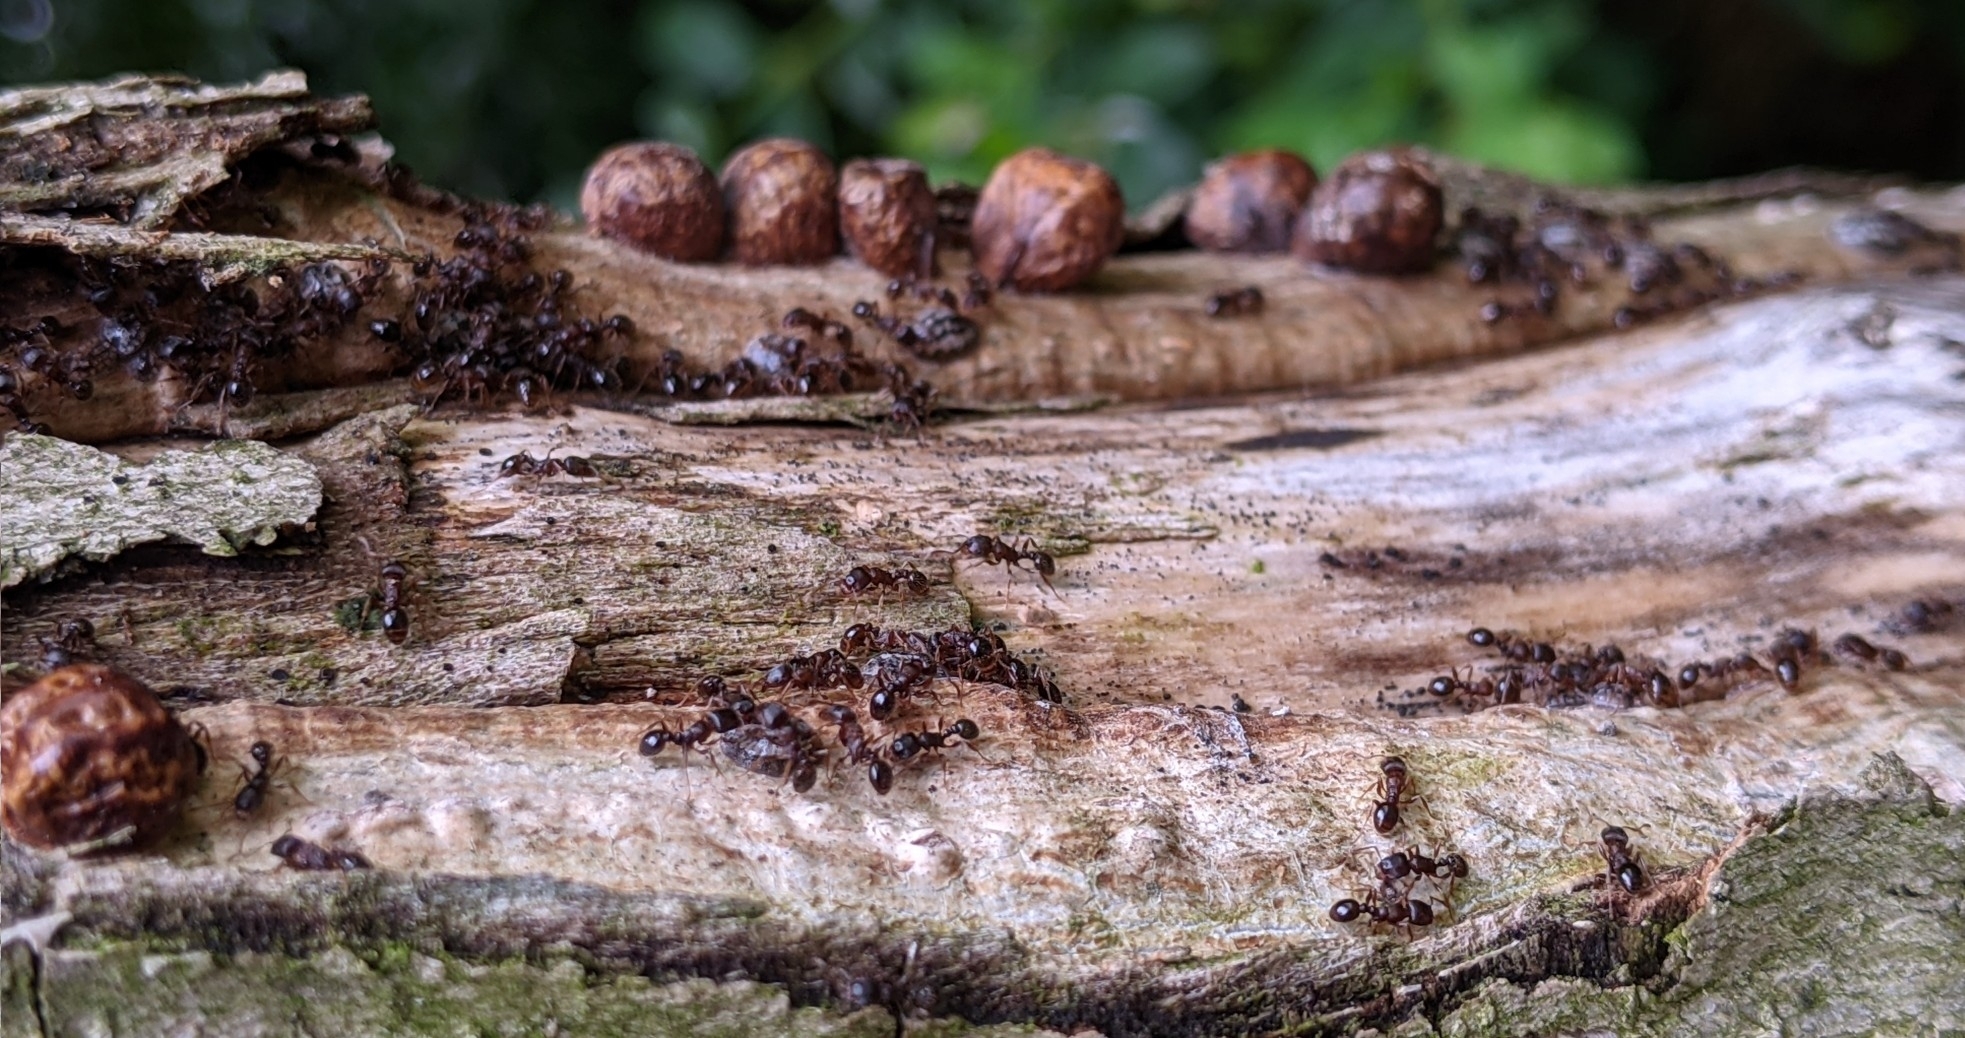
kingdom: Animalia
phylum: Arthropoda
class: Insecta
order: Hymenoptera
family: Formicidae
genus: Tetramorium
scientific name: Tetramorium immigrans
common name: Pavement ant
